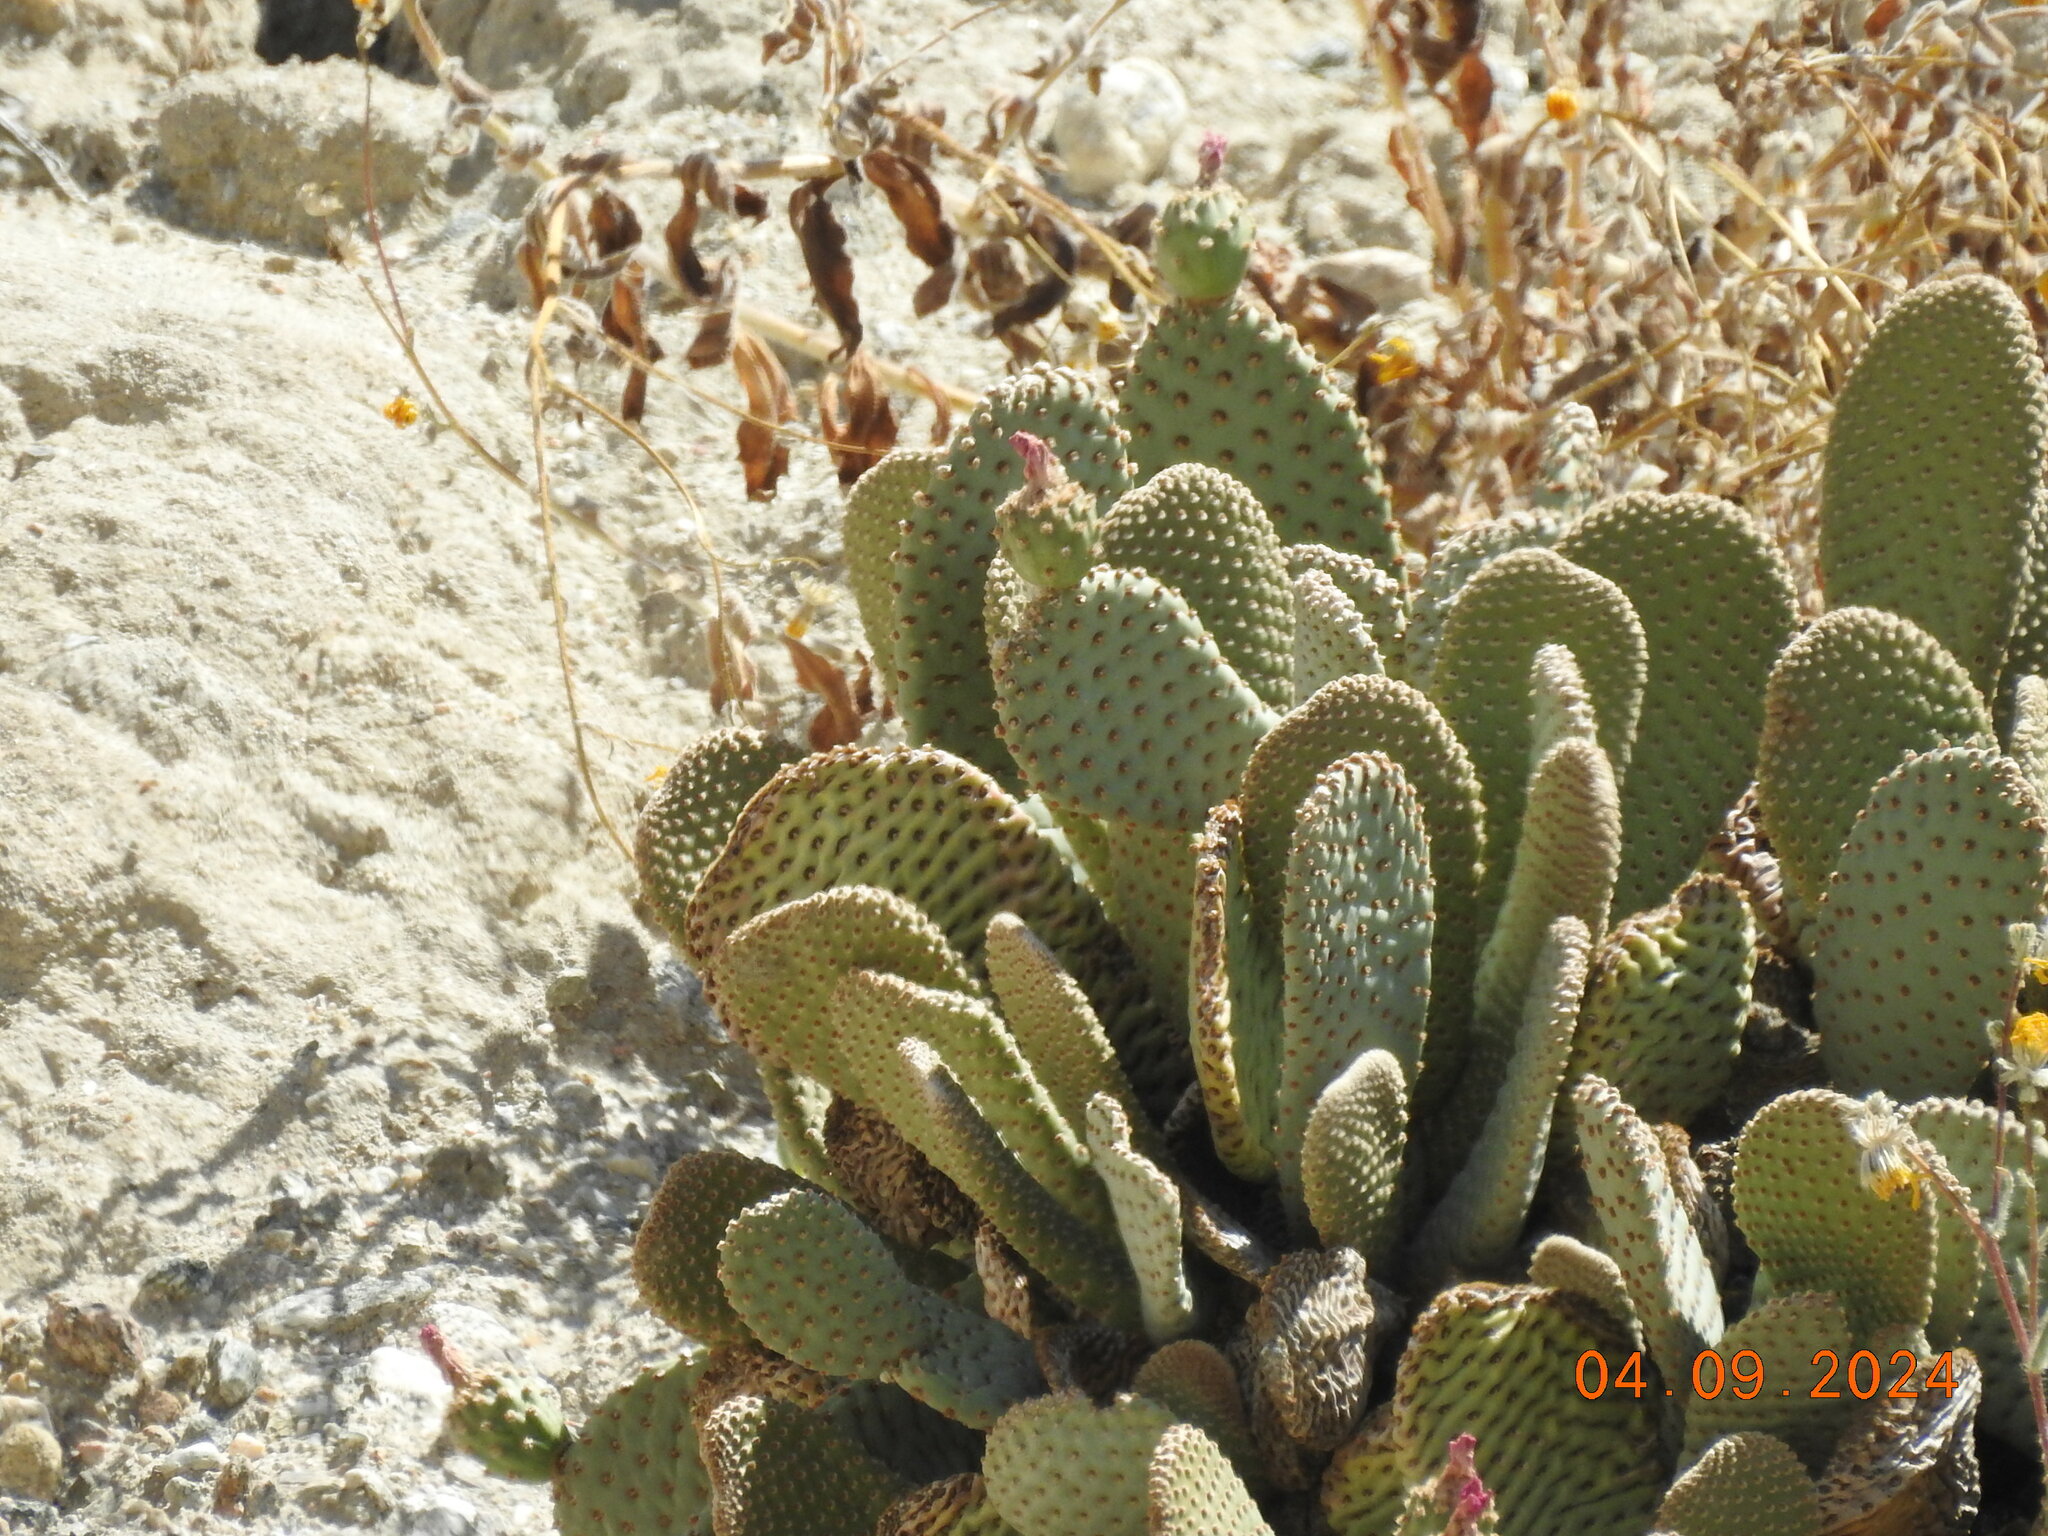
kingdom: Plantae
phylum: Tracheophyta
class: Magnoliopsida
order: Caryophyllales
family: Cactaceae
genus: Opuntia
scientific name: Opuntia basilaris
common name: Beavertail prickly-pear
